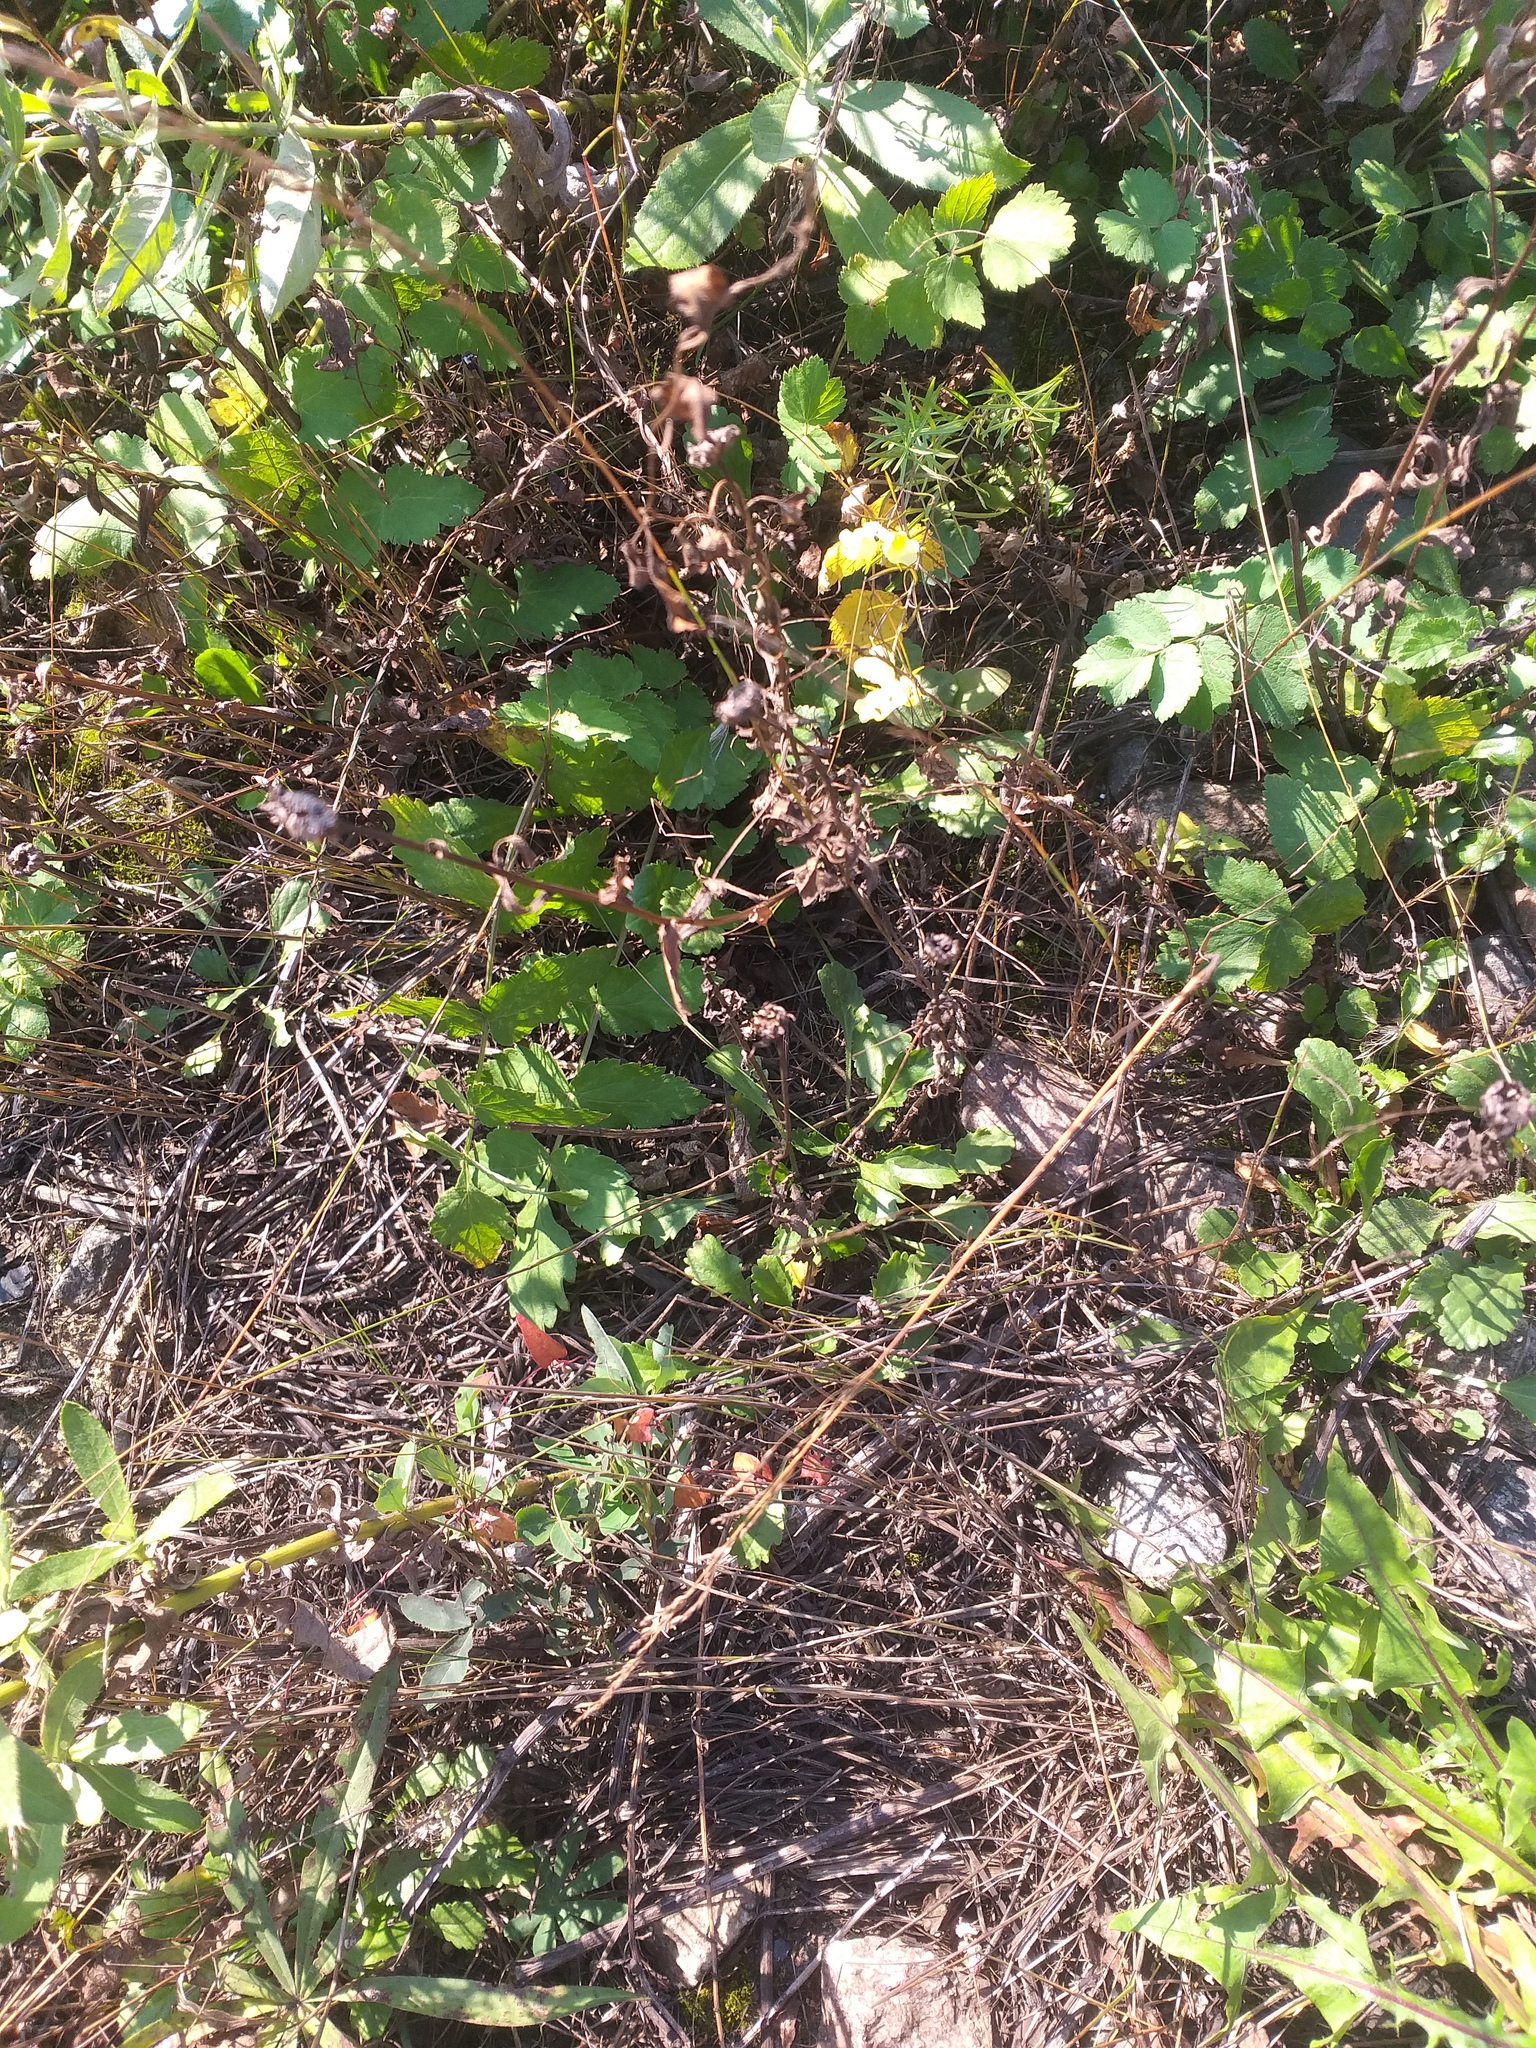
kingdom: Plantae
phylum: Tracheophyta
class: Magnoliopsida
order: Asterales
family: Asteraceae
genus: Leucanthemum
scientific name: Leucanthemum vulgare
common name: Oxeye daisy
